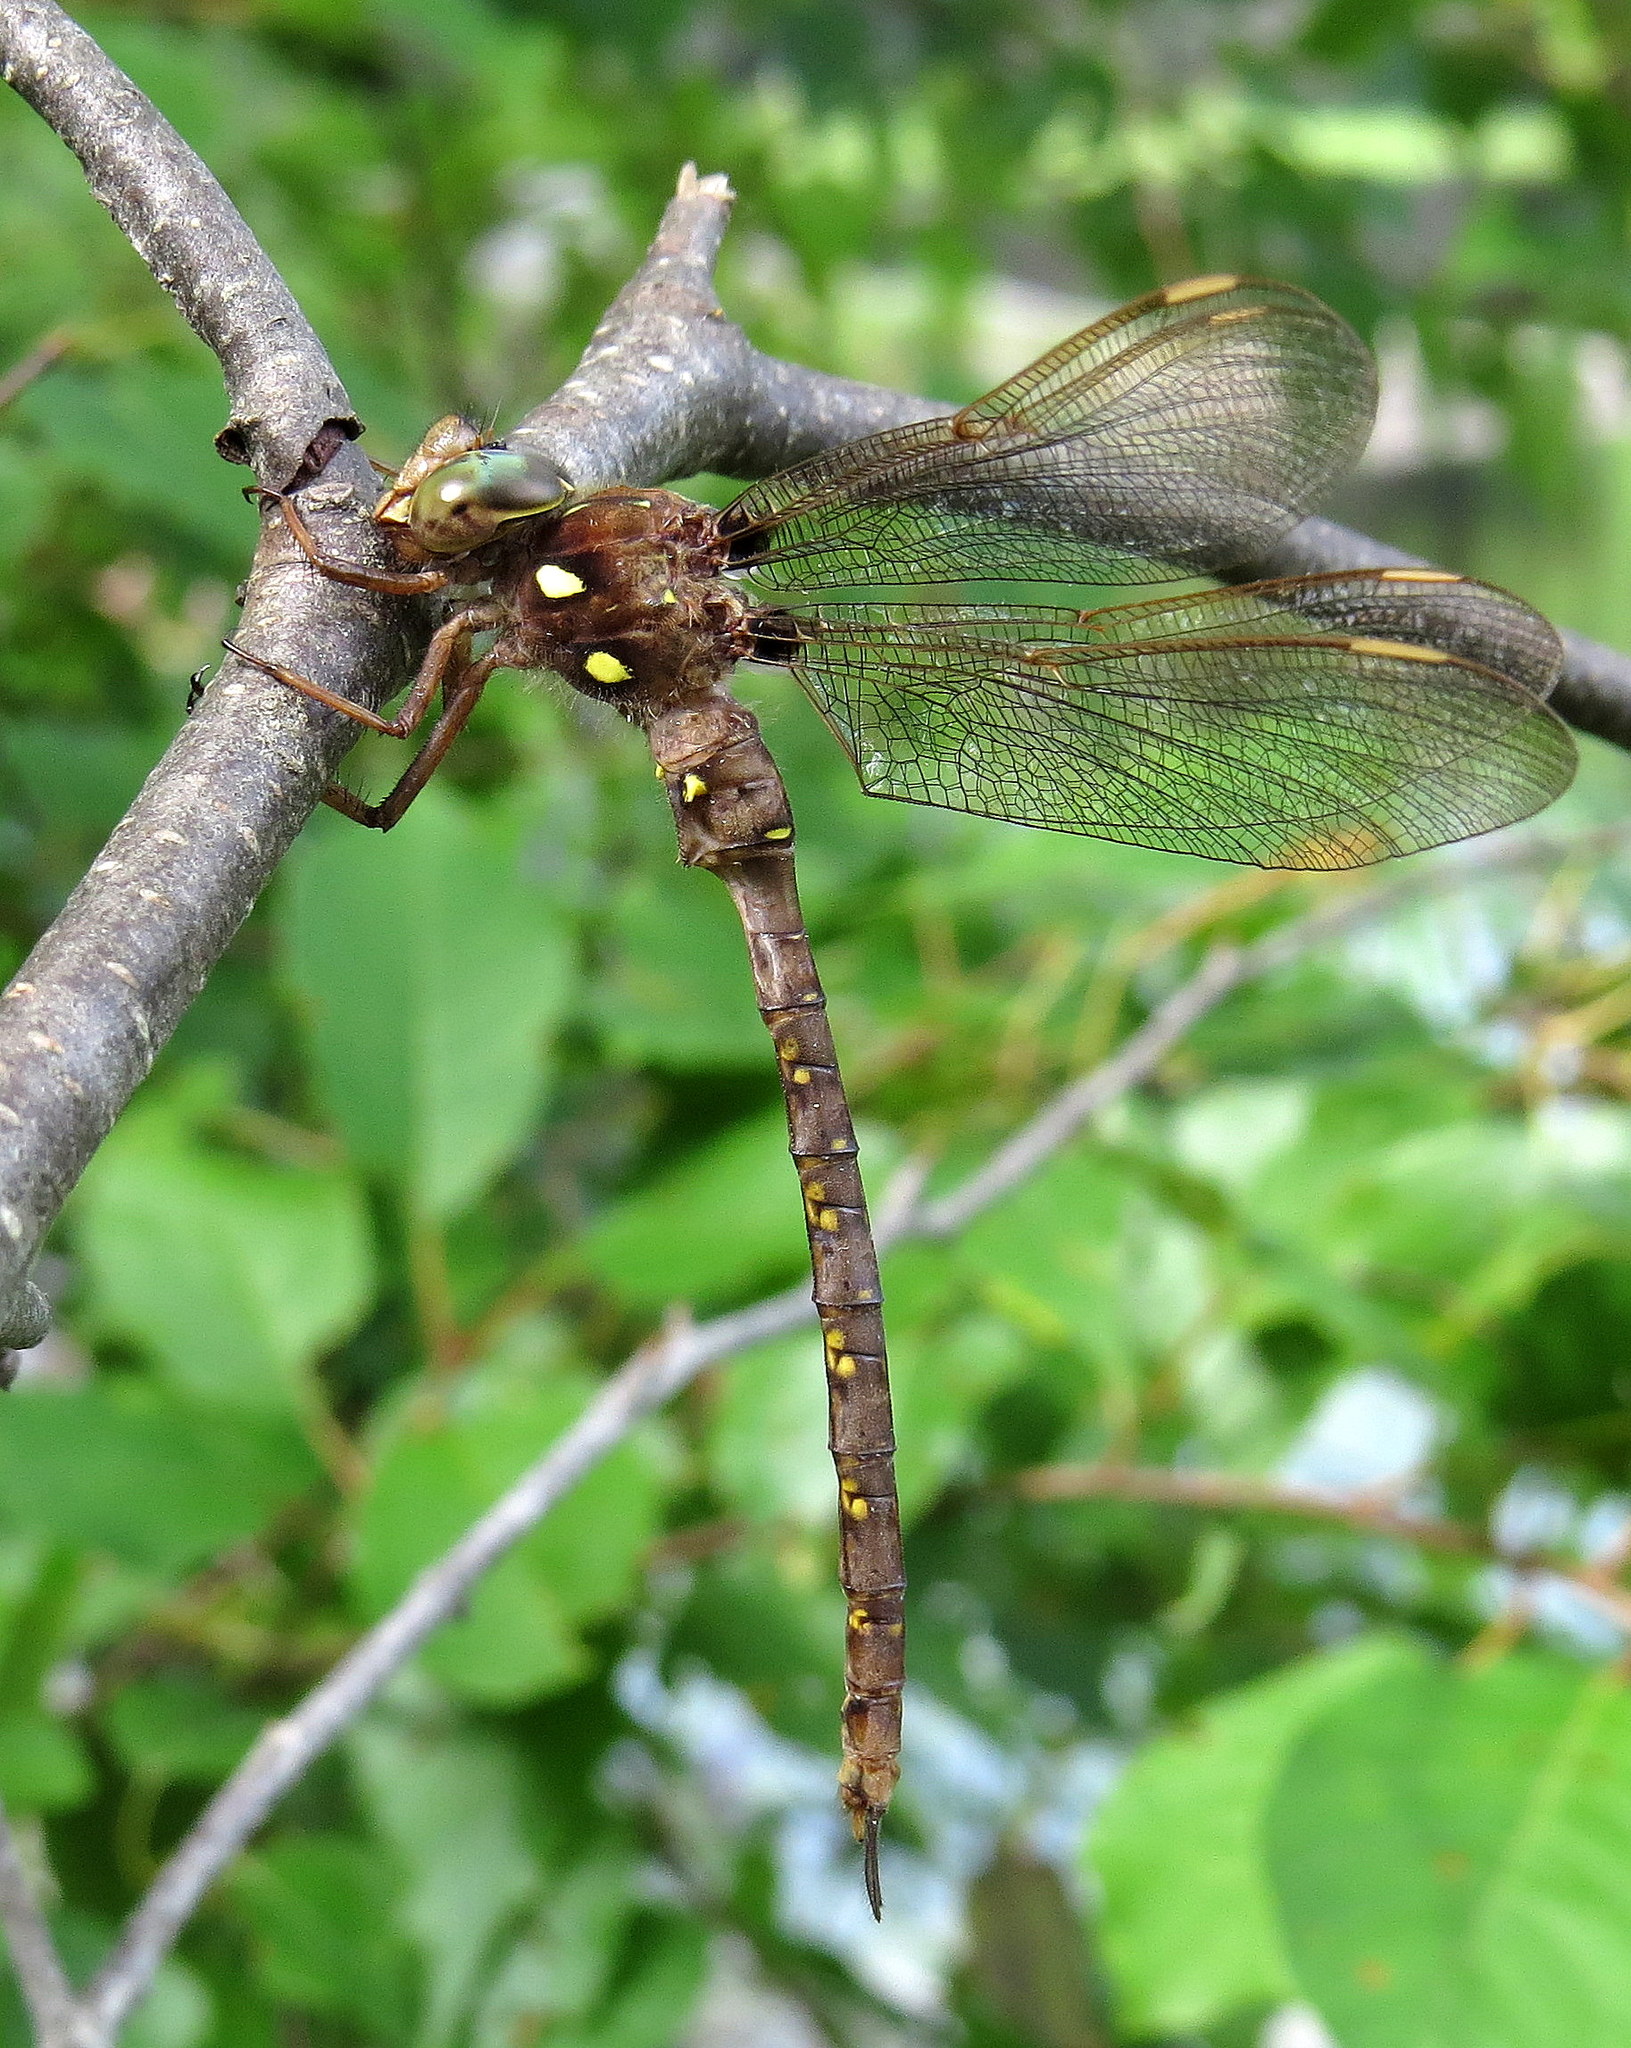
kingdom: Animalia
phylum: Arthropoda
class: Insecta
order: Odonata
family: Aeshnidae
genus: Boyeria
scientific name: Boyeria vinosa
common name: Fawn darner
